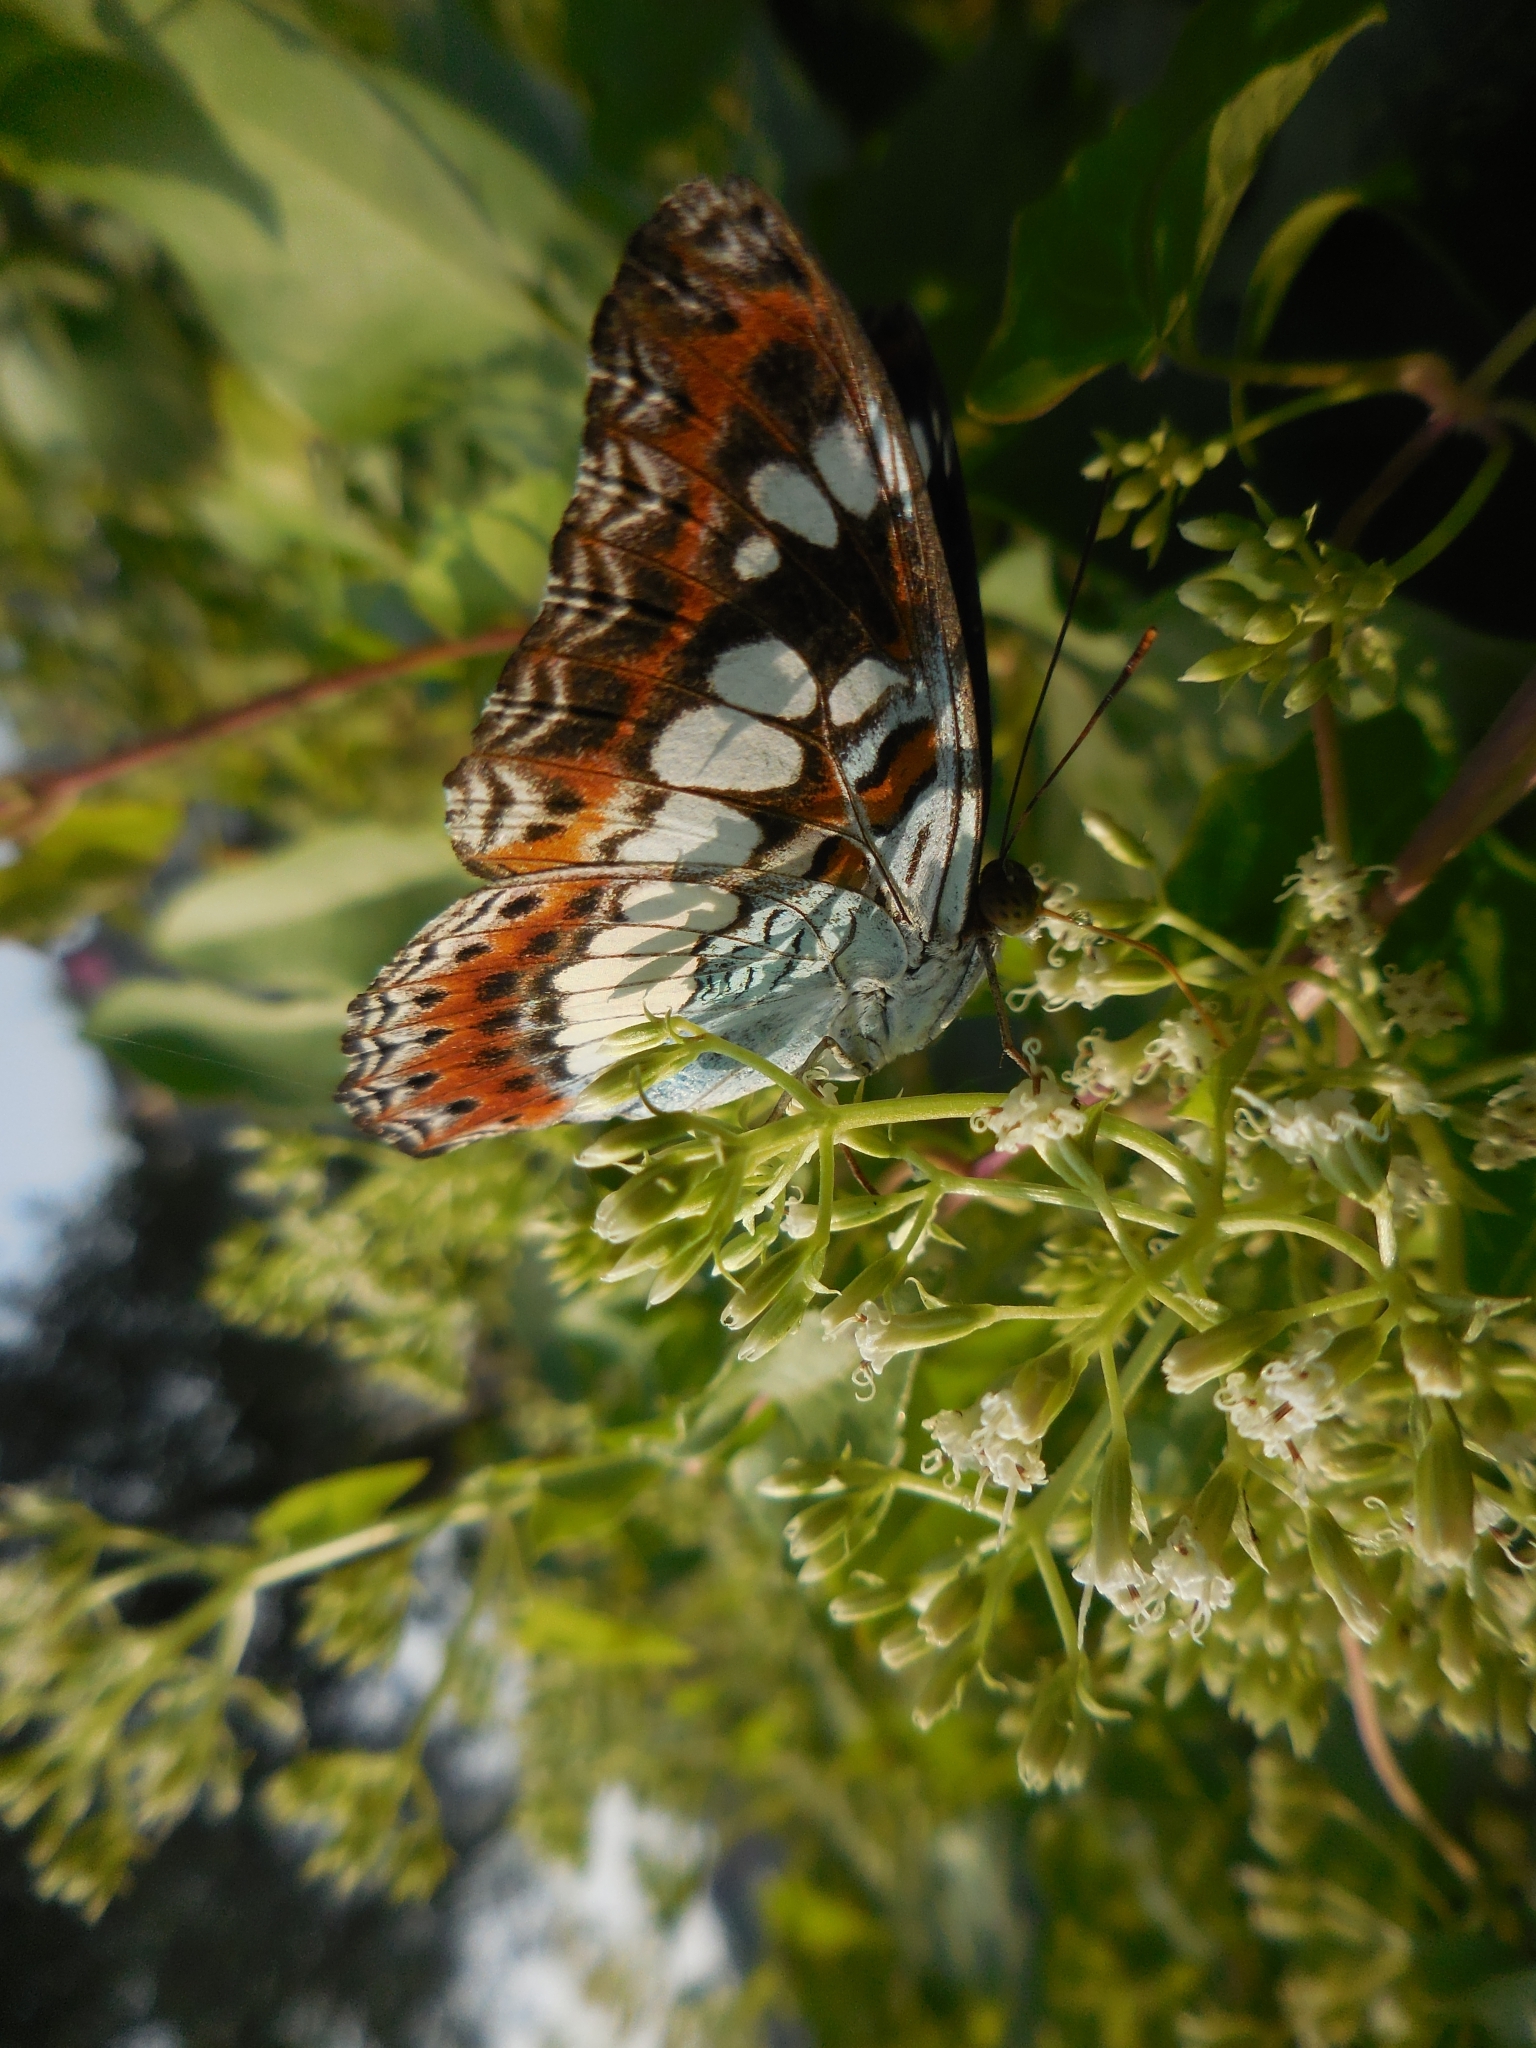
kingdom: Animalia
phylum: Arthropoda
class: Insecta
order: Lepidoptera
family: Nymphalidae
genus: Limenitis
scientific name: Limenitis Moduza procris
